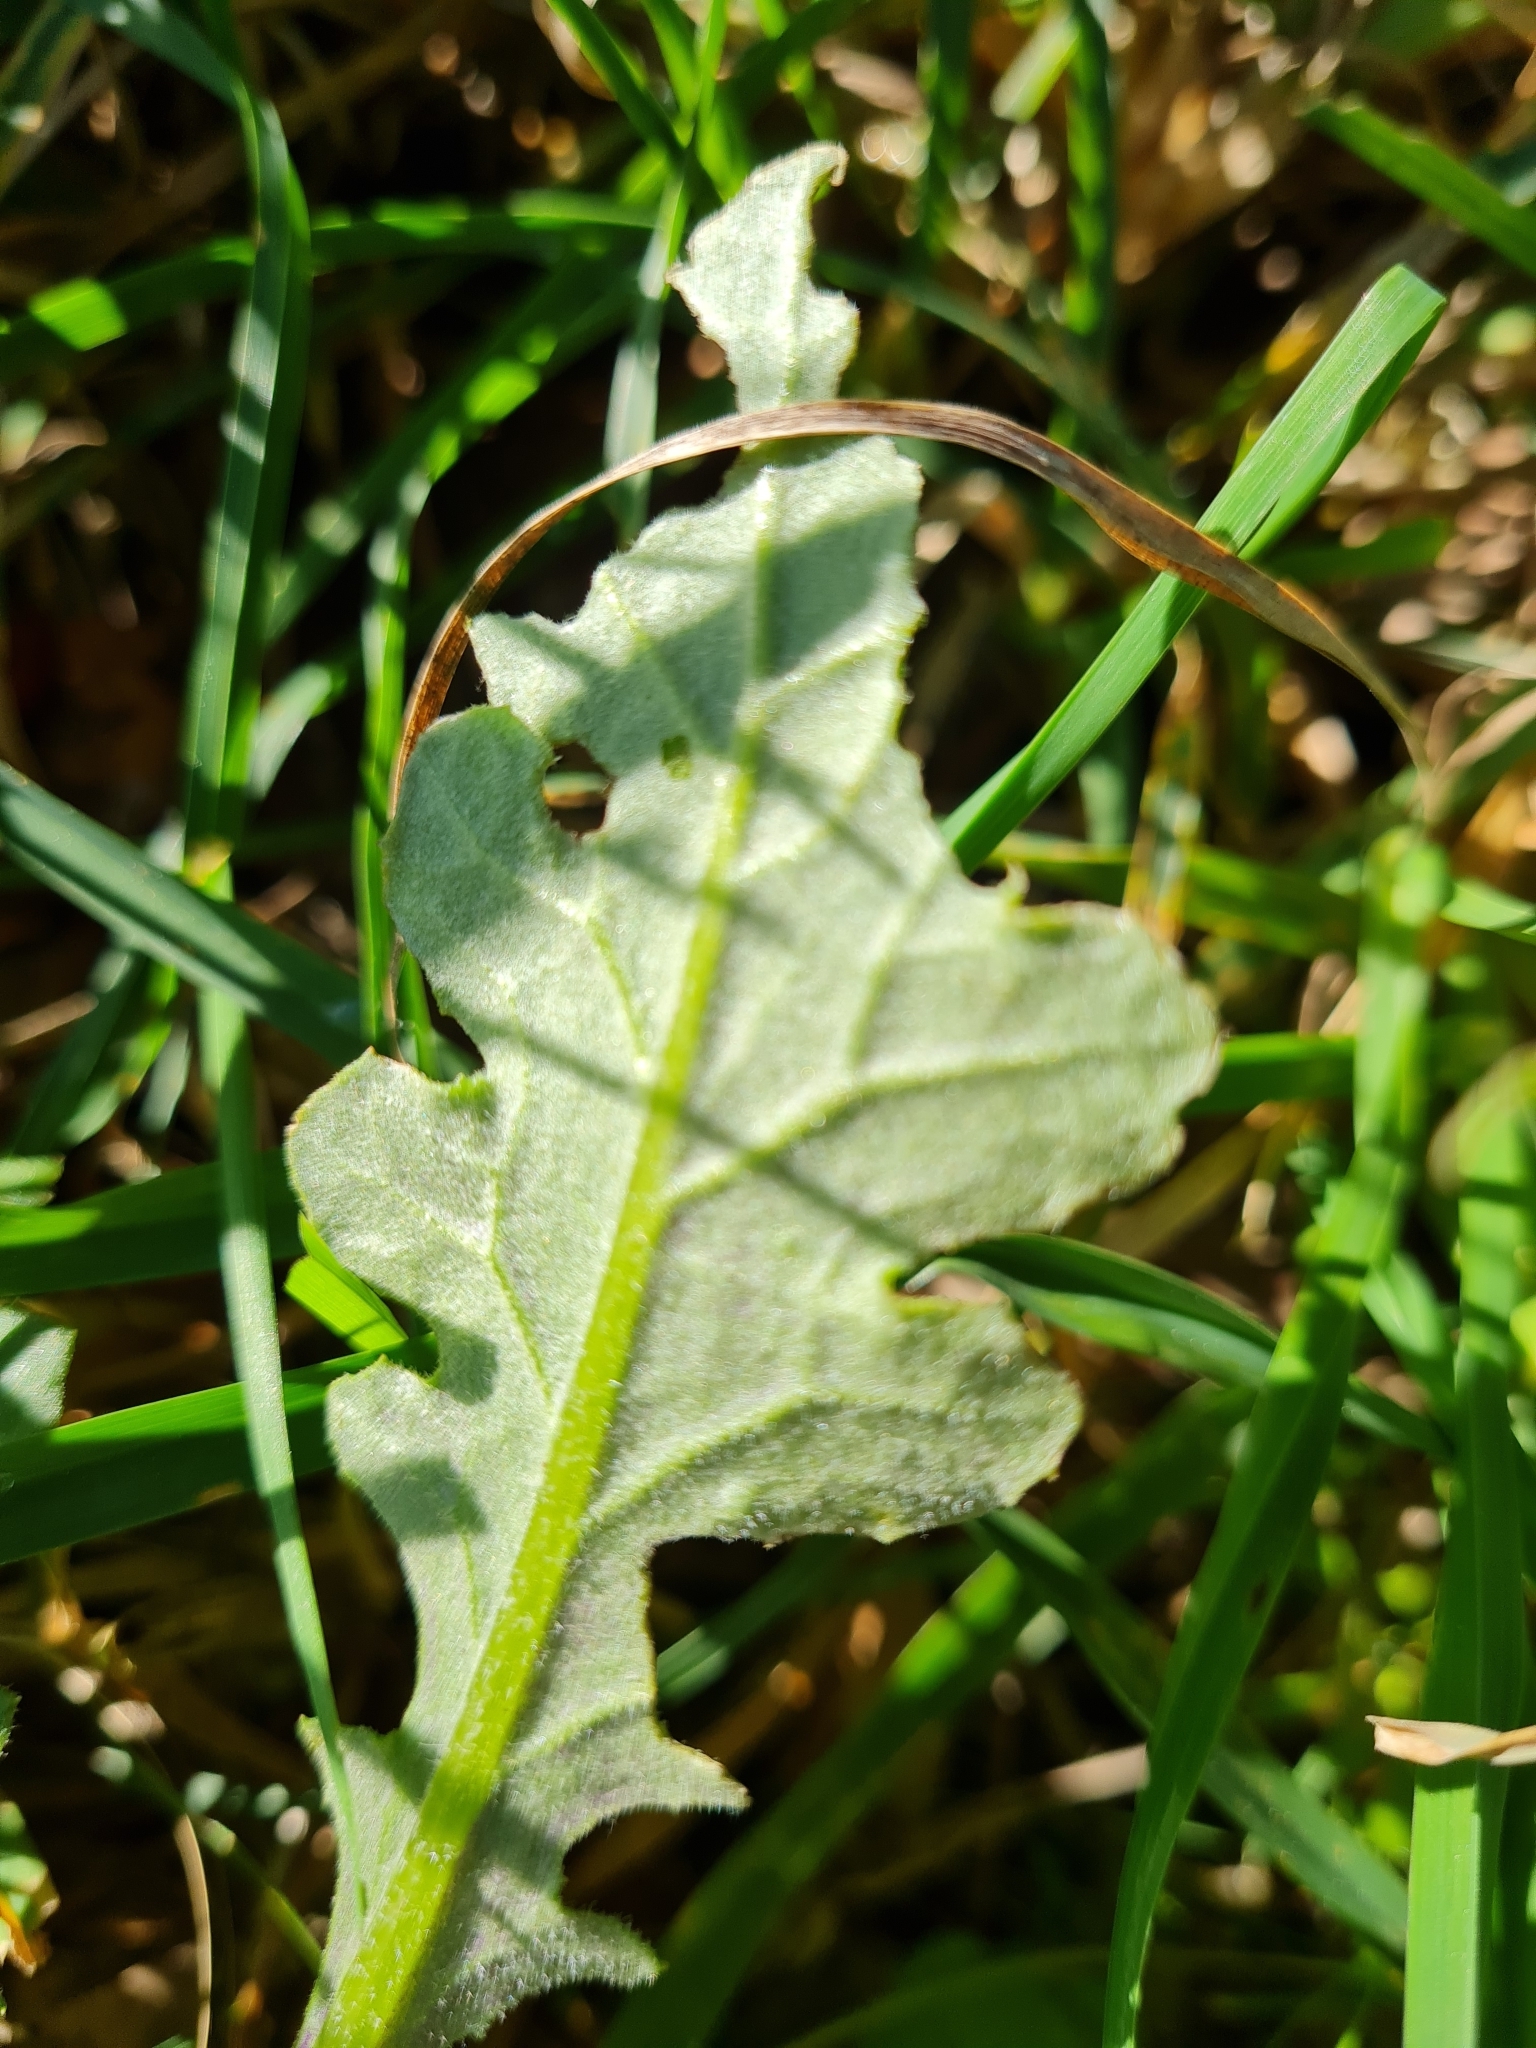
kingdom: Plantae
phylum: Tracheophyta
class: Magnoliopsida
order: Asterales
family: Asteraceae
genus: Senecio
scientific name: Senecio glomeratus
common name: Cutleaf burnweed
